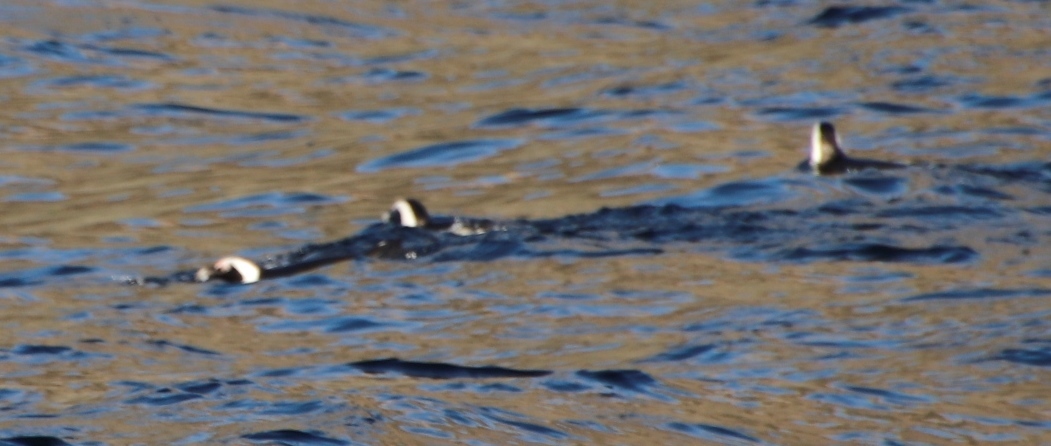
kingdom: Animalia
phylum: Chordata
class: Aves
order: Sphenisciformes
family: Spheniscidae
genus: Spheniscus
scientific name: Spheniscus demersus
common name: African penguin
